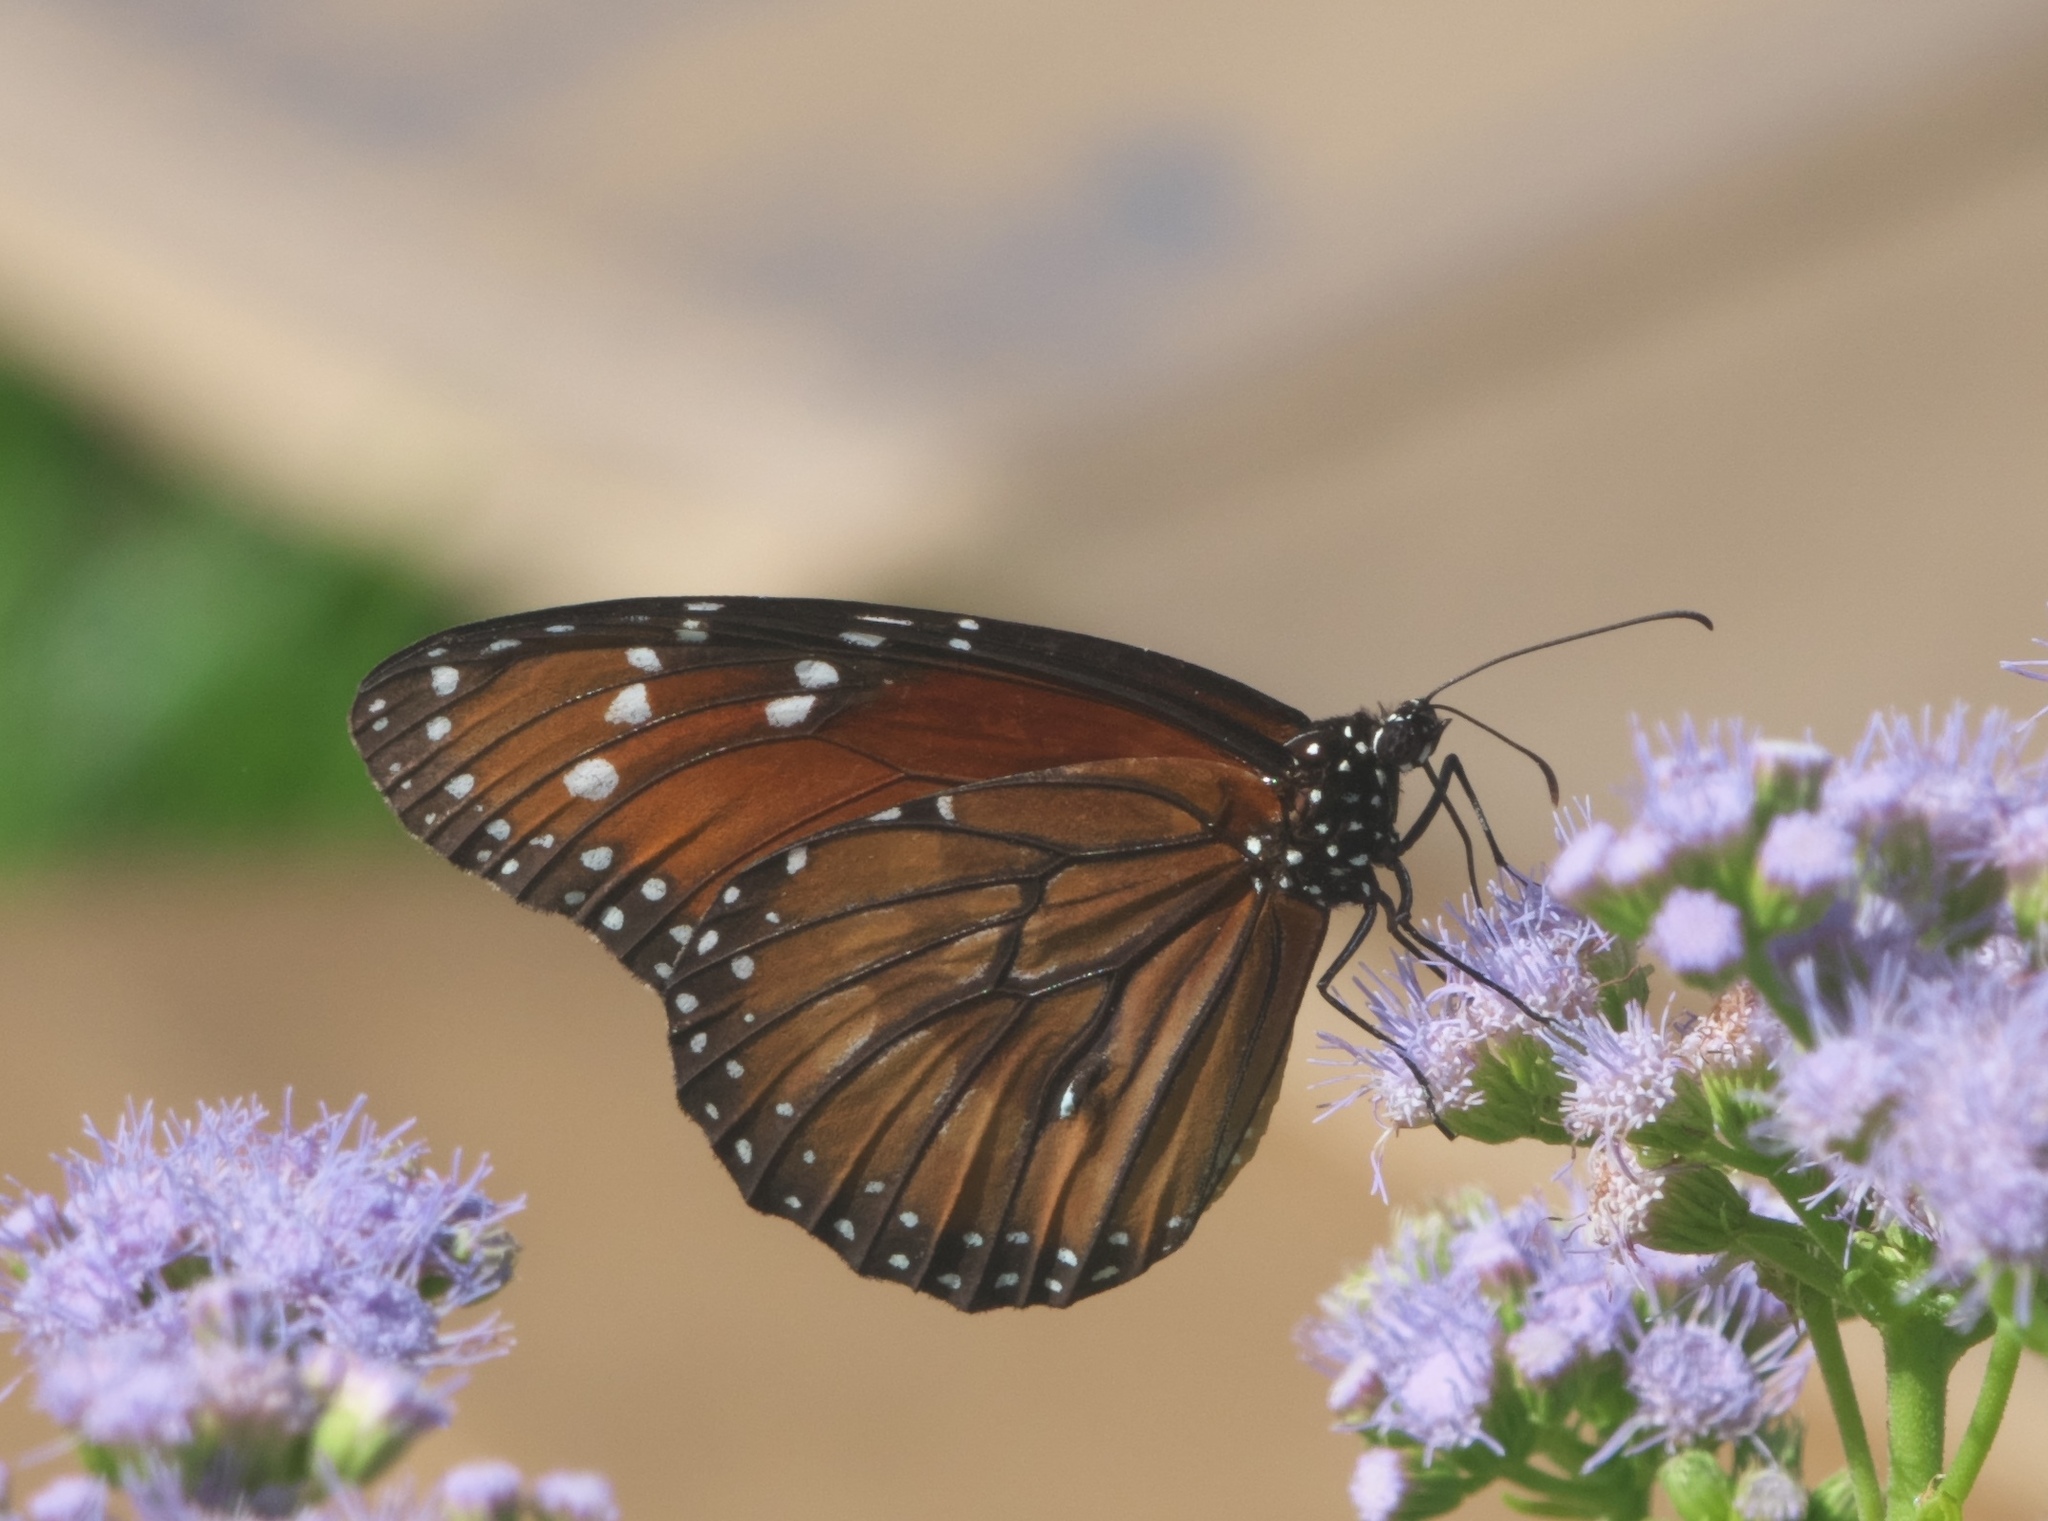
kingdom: Animalia
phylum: Arthropoda
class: Insecta
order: Lepidoptera
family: Nymphalidae
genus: Danaus
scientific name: Danaus eresimus
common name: Soldier
